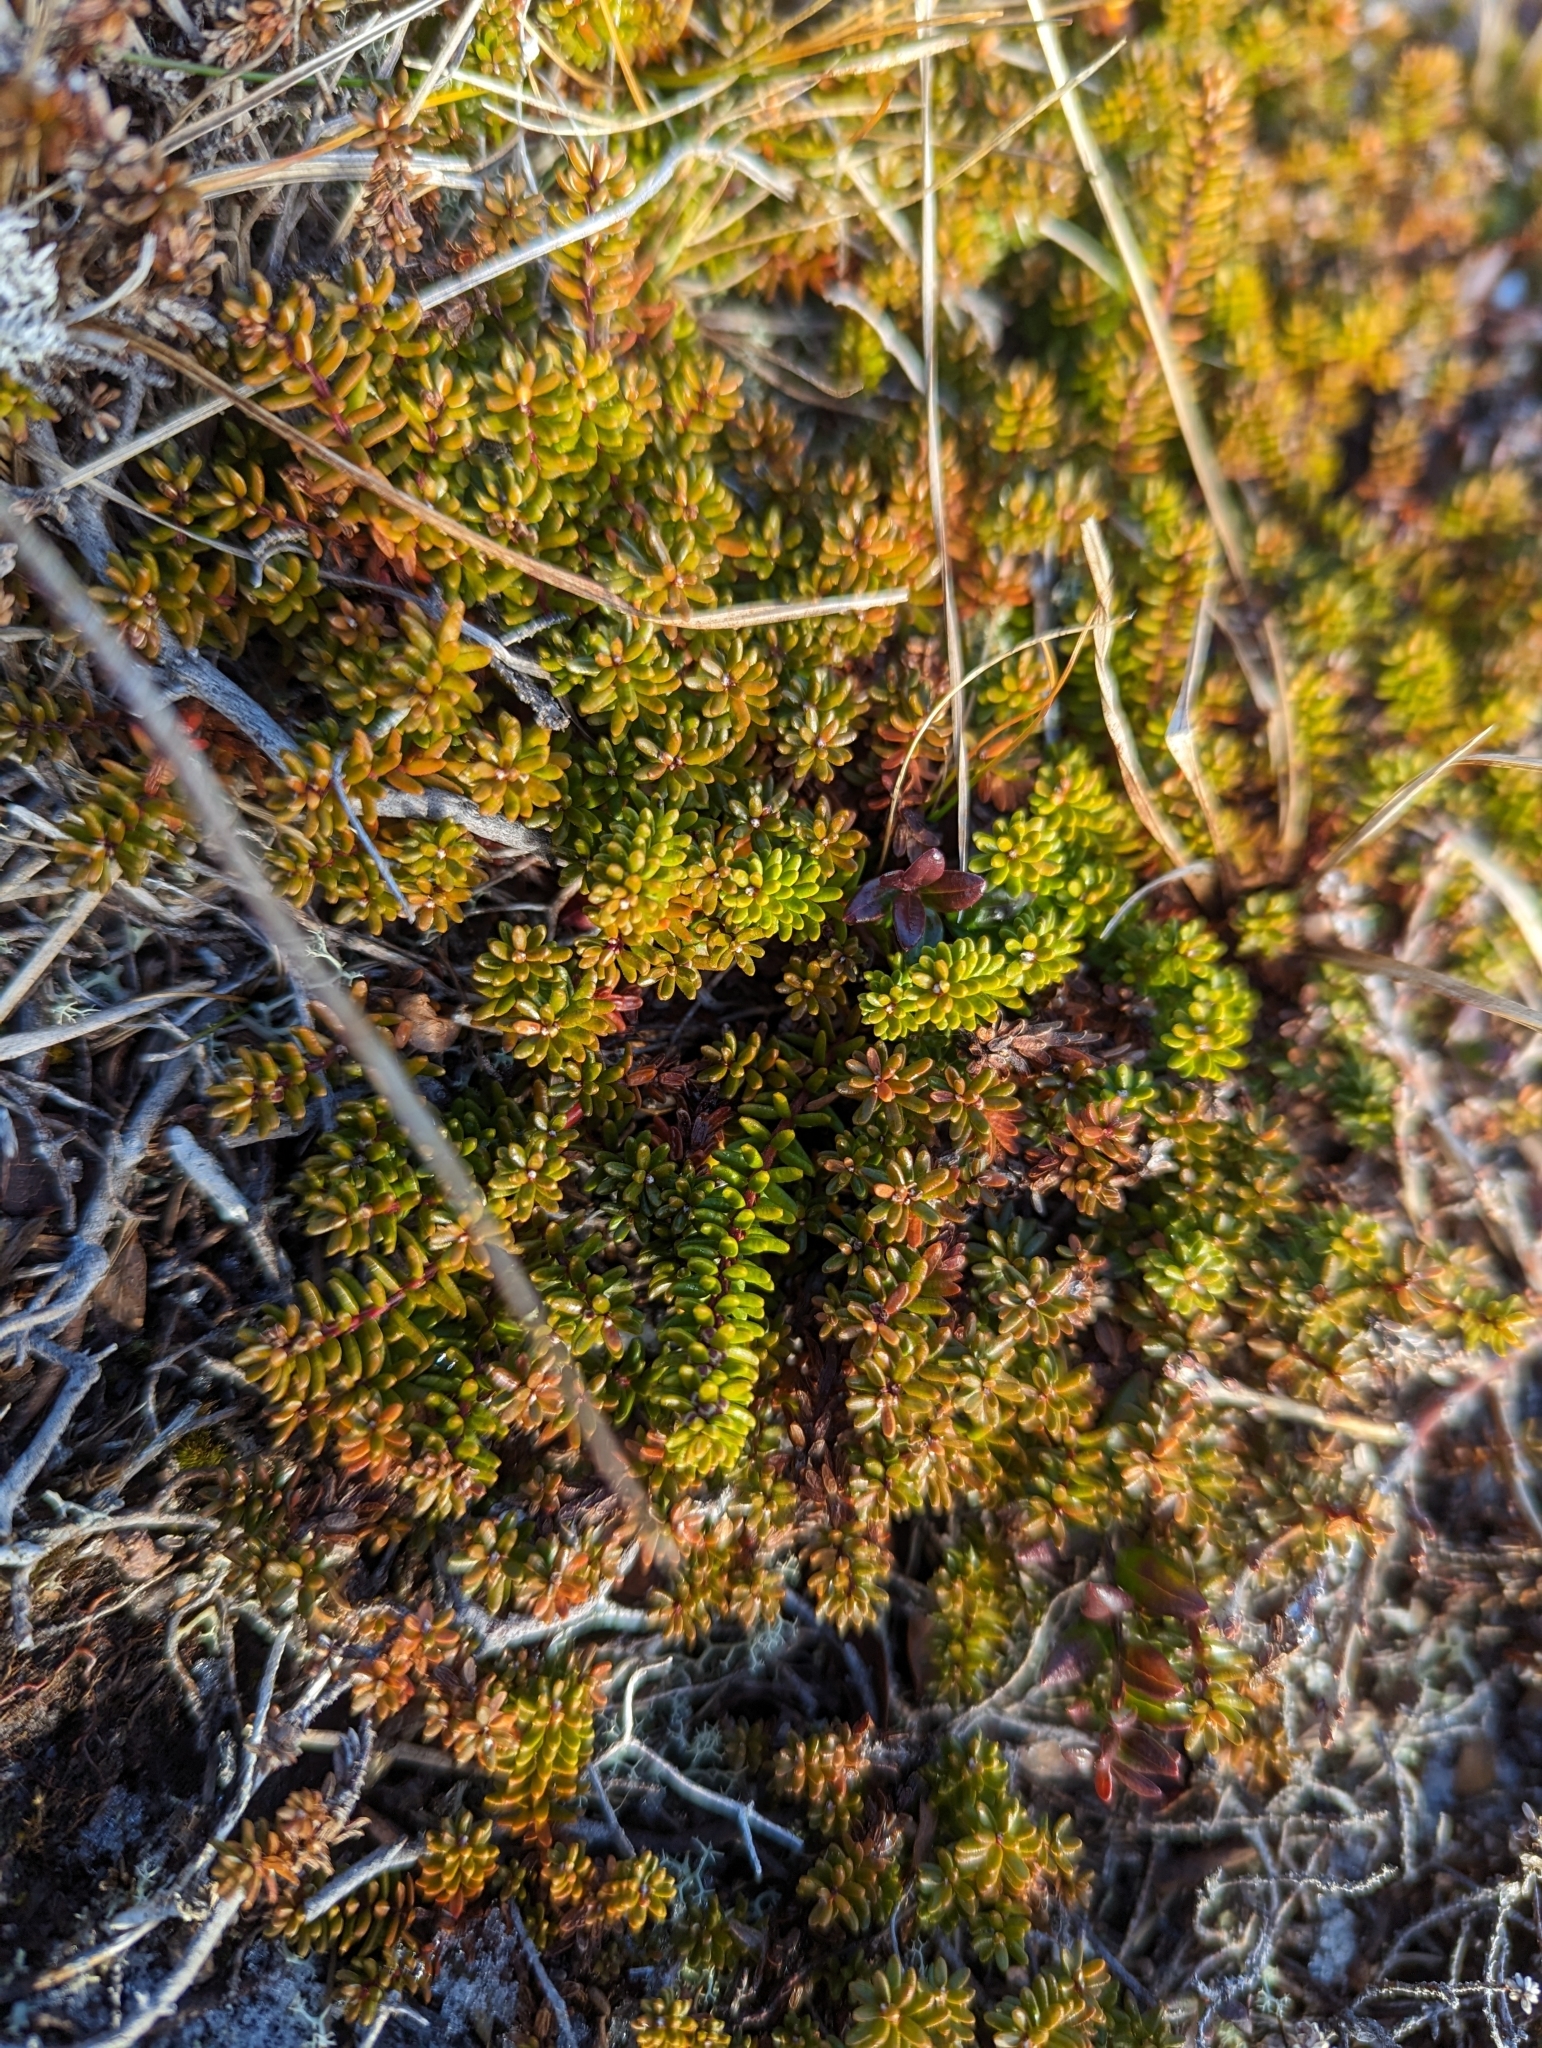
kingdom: Plantae
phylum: Tracheophyta
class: Magnoliopsida
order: Ericales
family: Ericaceae
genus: Empetrum
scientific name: Empetrum nigrum
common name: Black crowberry
